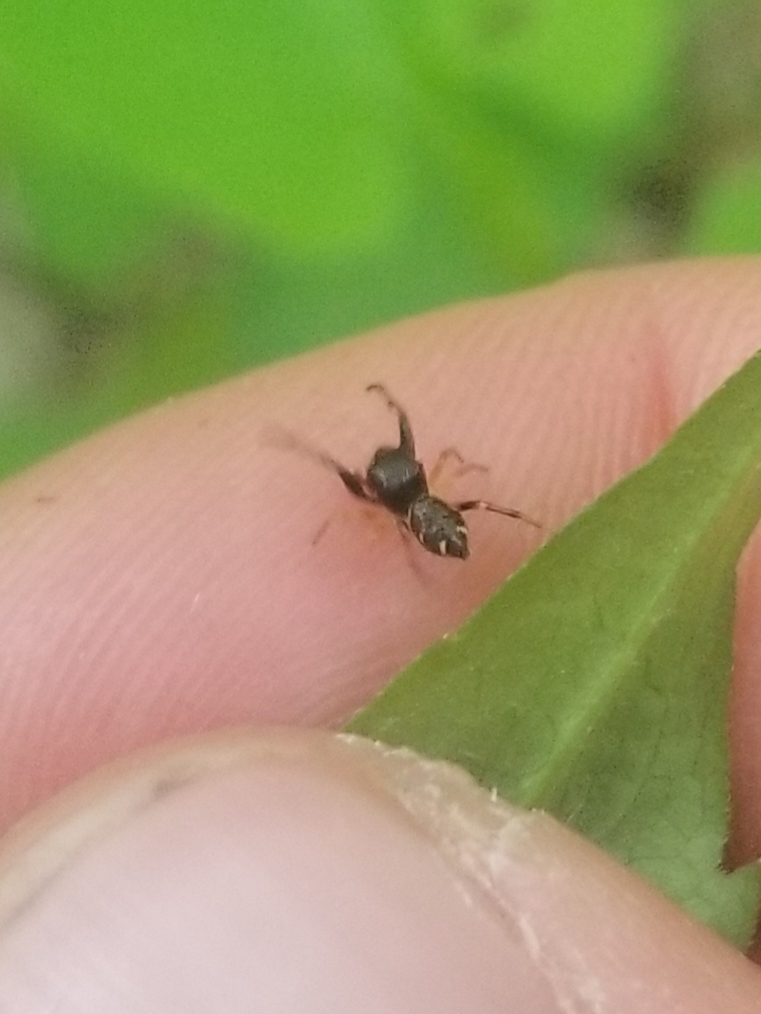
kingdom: Animalia
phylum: Arthropoda
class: Arachnida
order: Araneae
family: Salticidae
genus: Zygoballus
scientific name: Zygoballus rufipes
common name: Jumping spiders
